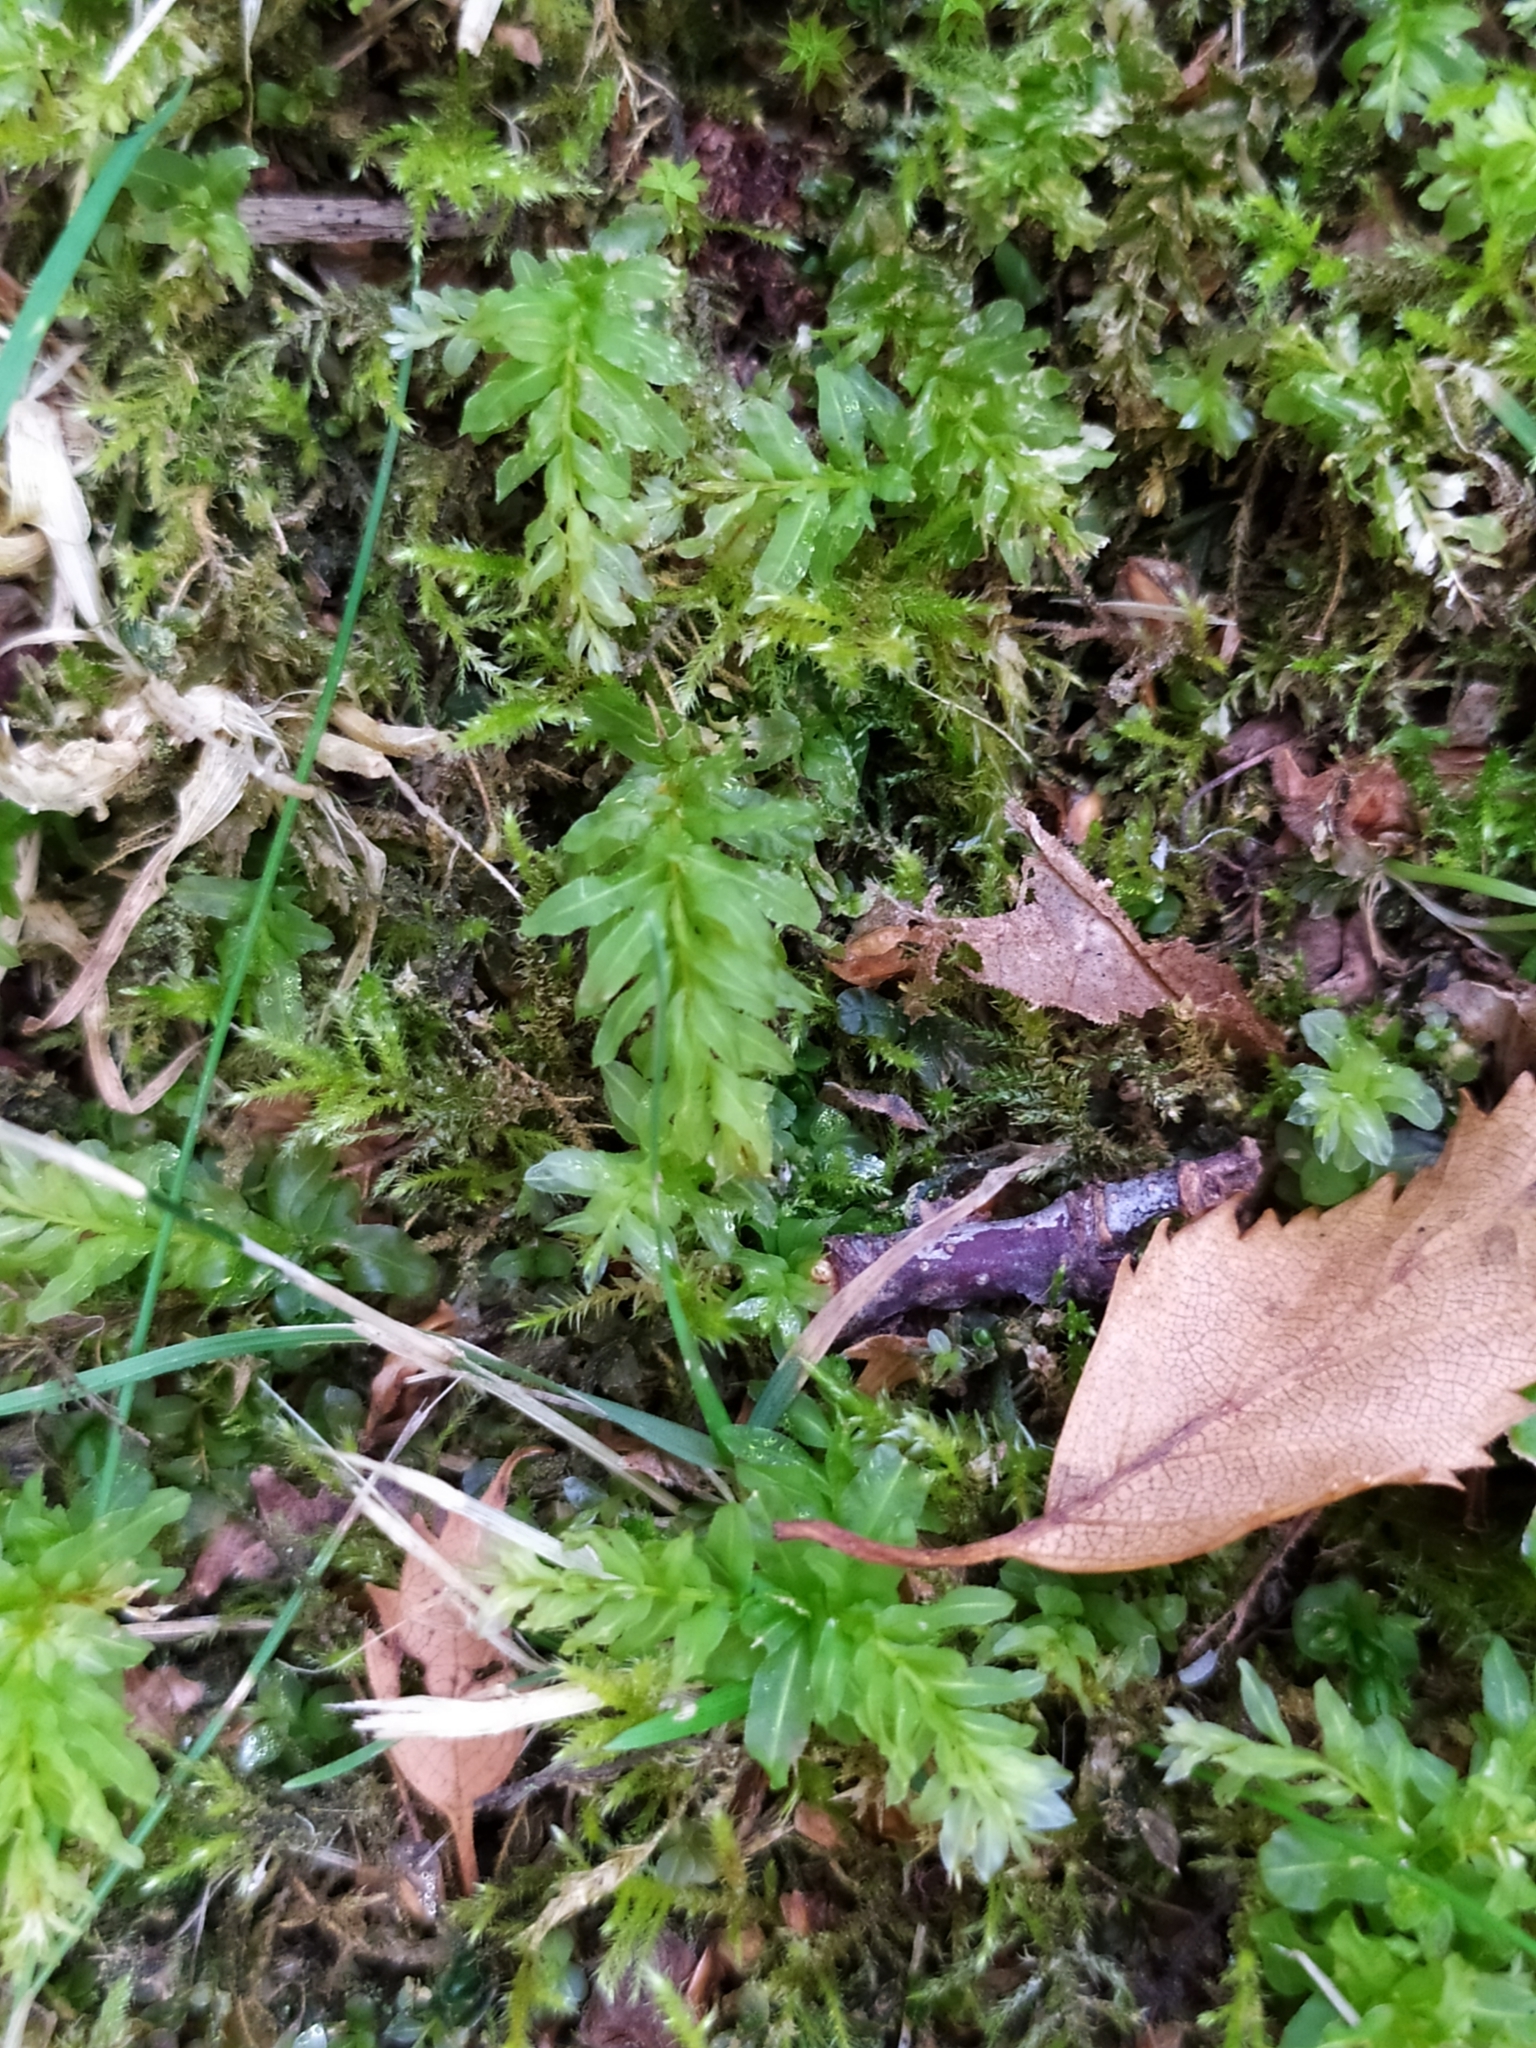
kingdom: Plantae
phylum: Bryophyta
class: Bryopsida
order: Bryales
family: Mniaceae
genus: Plagiomnium
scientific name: Plagiomnium undulatum
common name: Hart's-tongue thyme-moss
